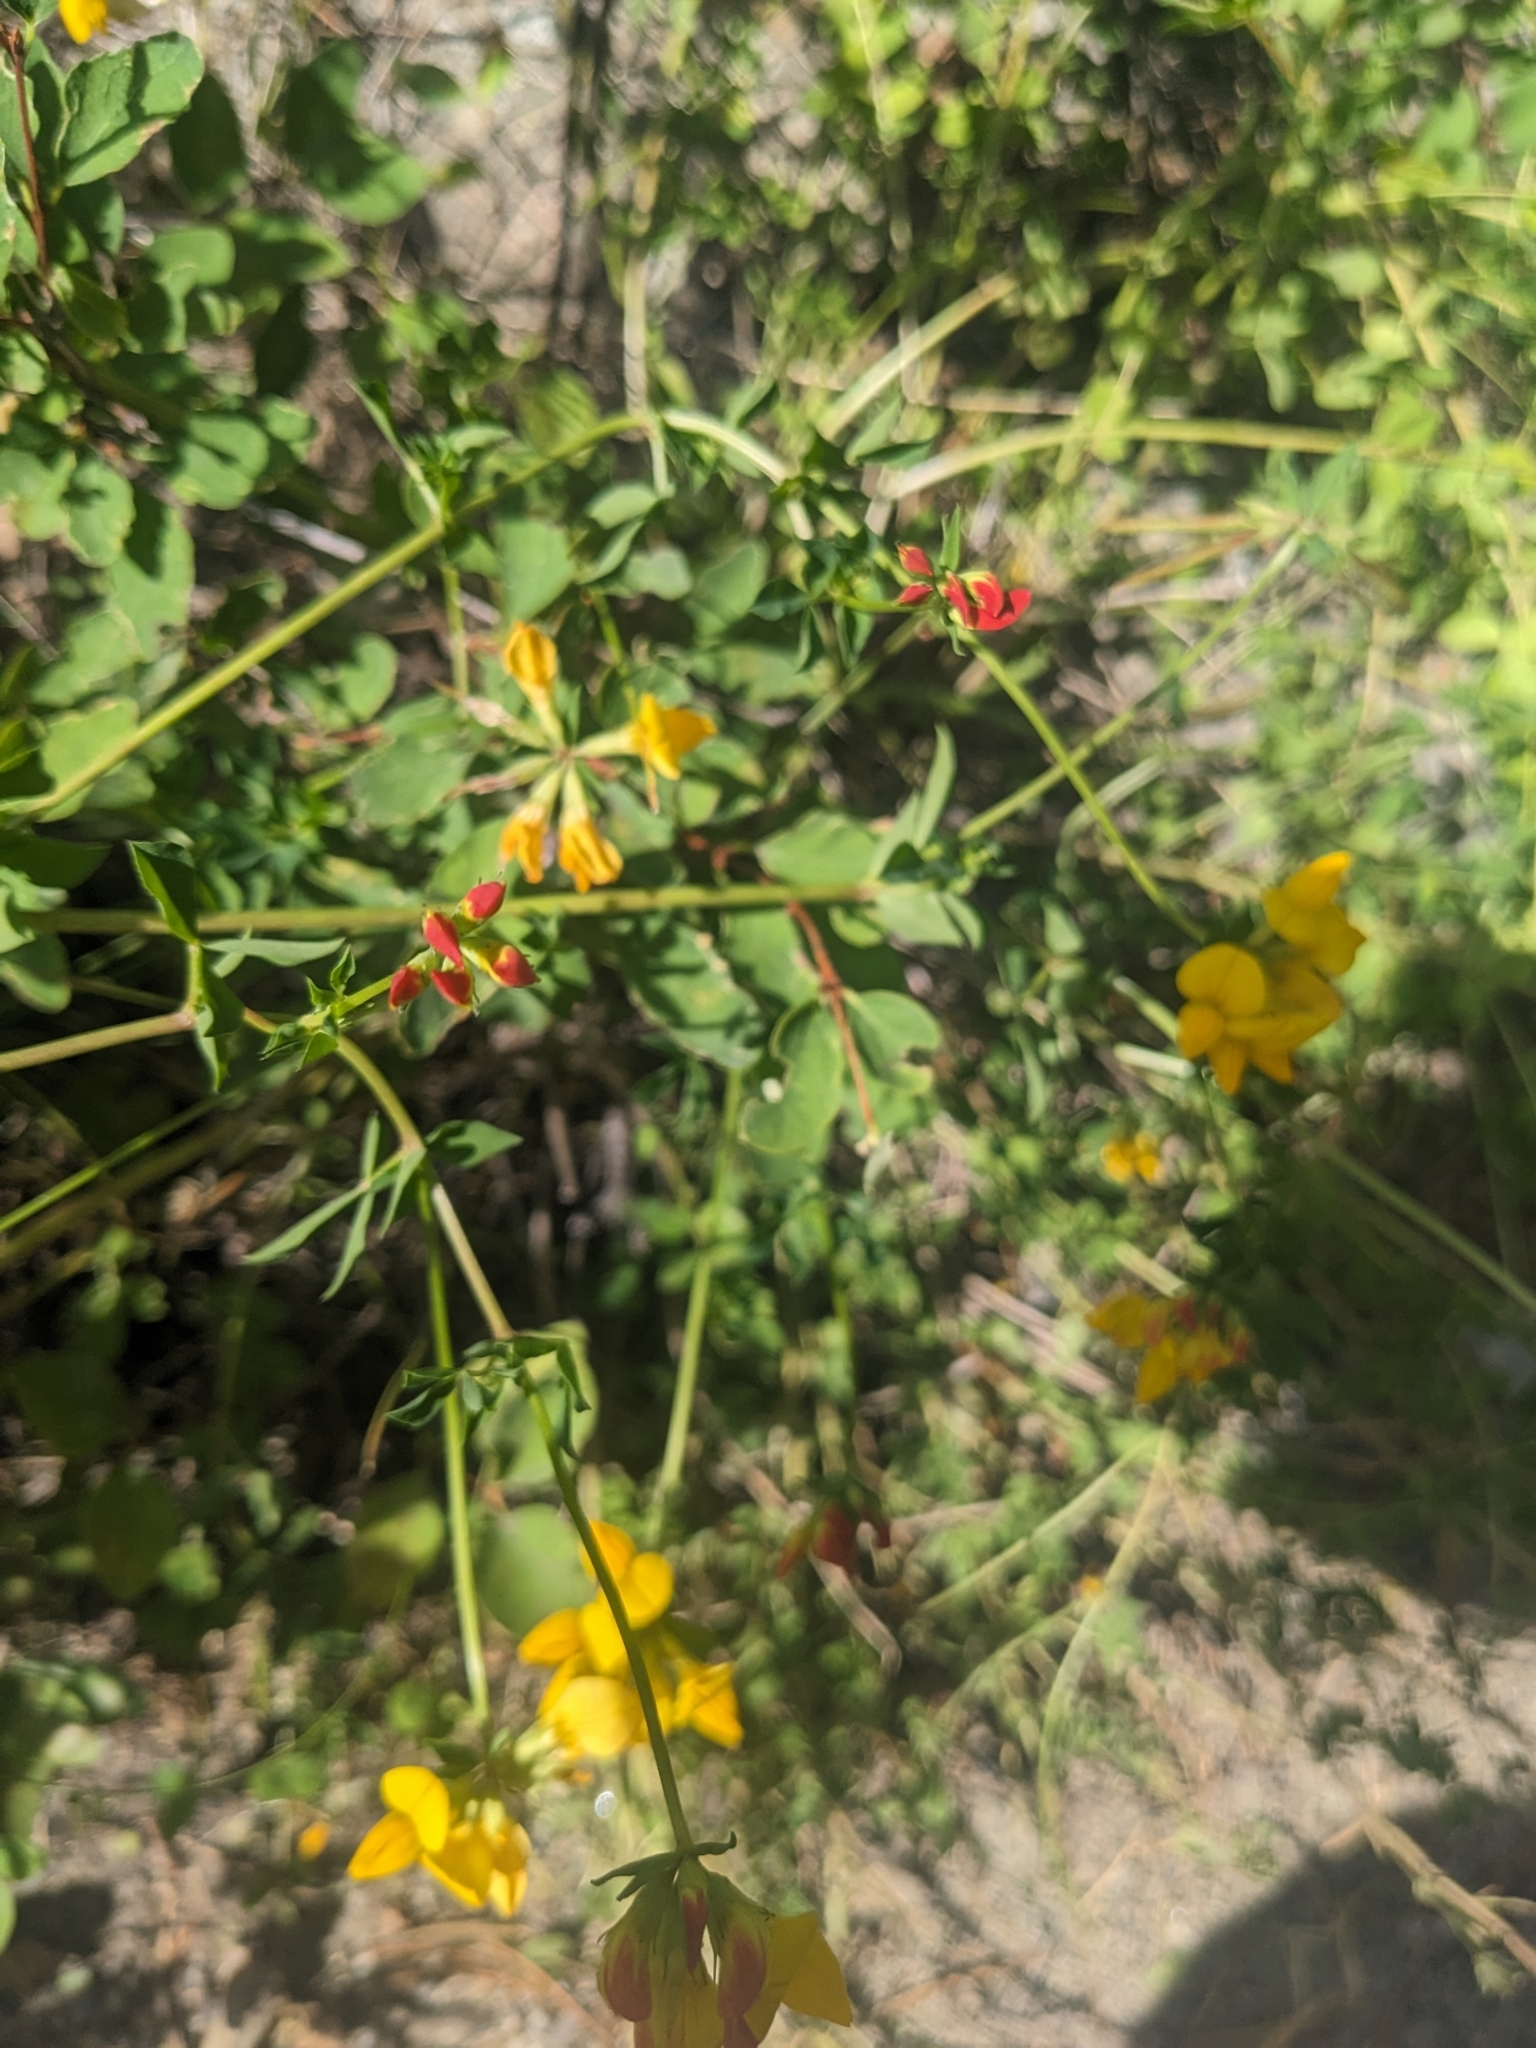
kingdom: Plantae
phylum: Tracheophyta
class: Magnoliopsida
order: Fabales
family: Fabaceae
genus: Lotus
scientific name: Lotus corniculatus
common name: Common bird's-foot-trefoil
